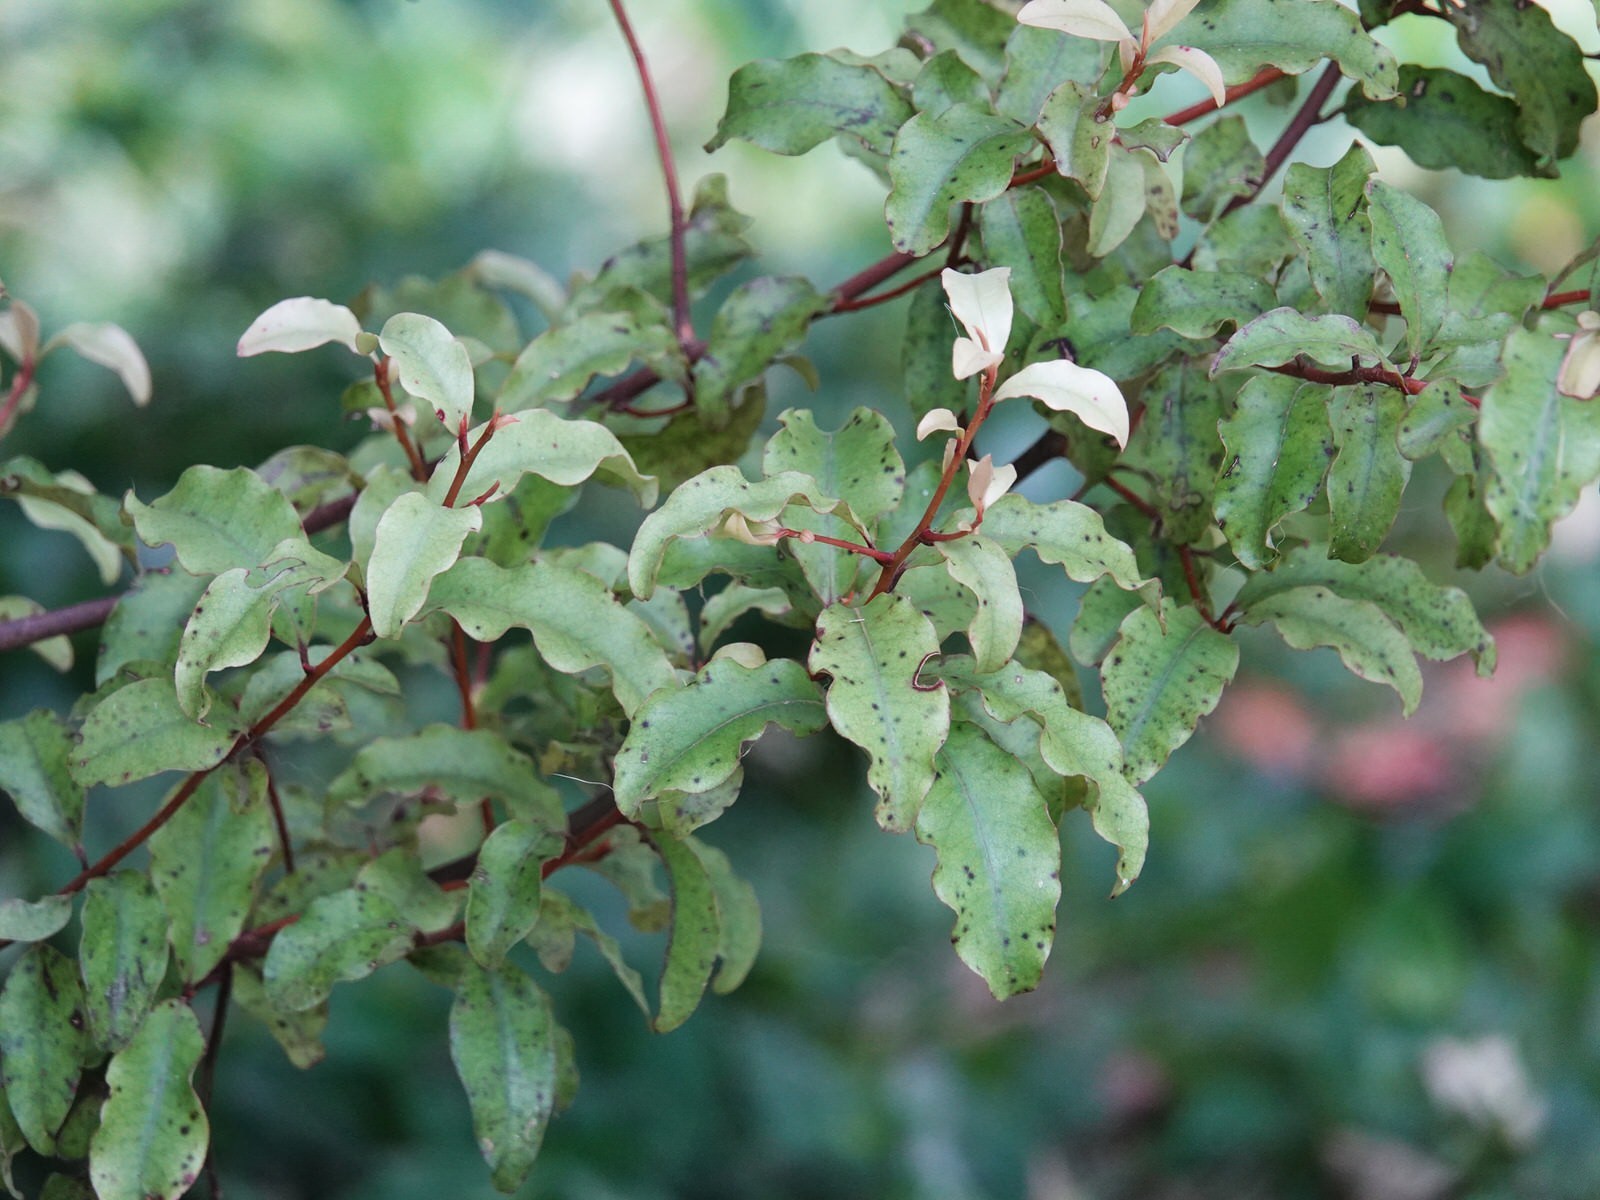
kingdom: Plantae
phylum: Tracheophyta
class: Magnoliopsida
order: Ericales
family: Primulaceae
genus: Myrsine
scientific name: Myrsine australis
